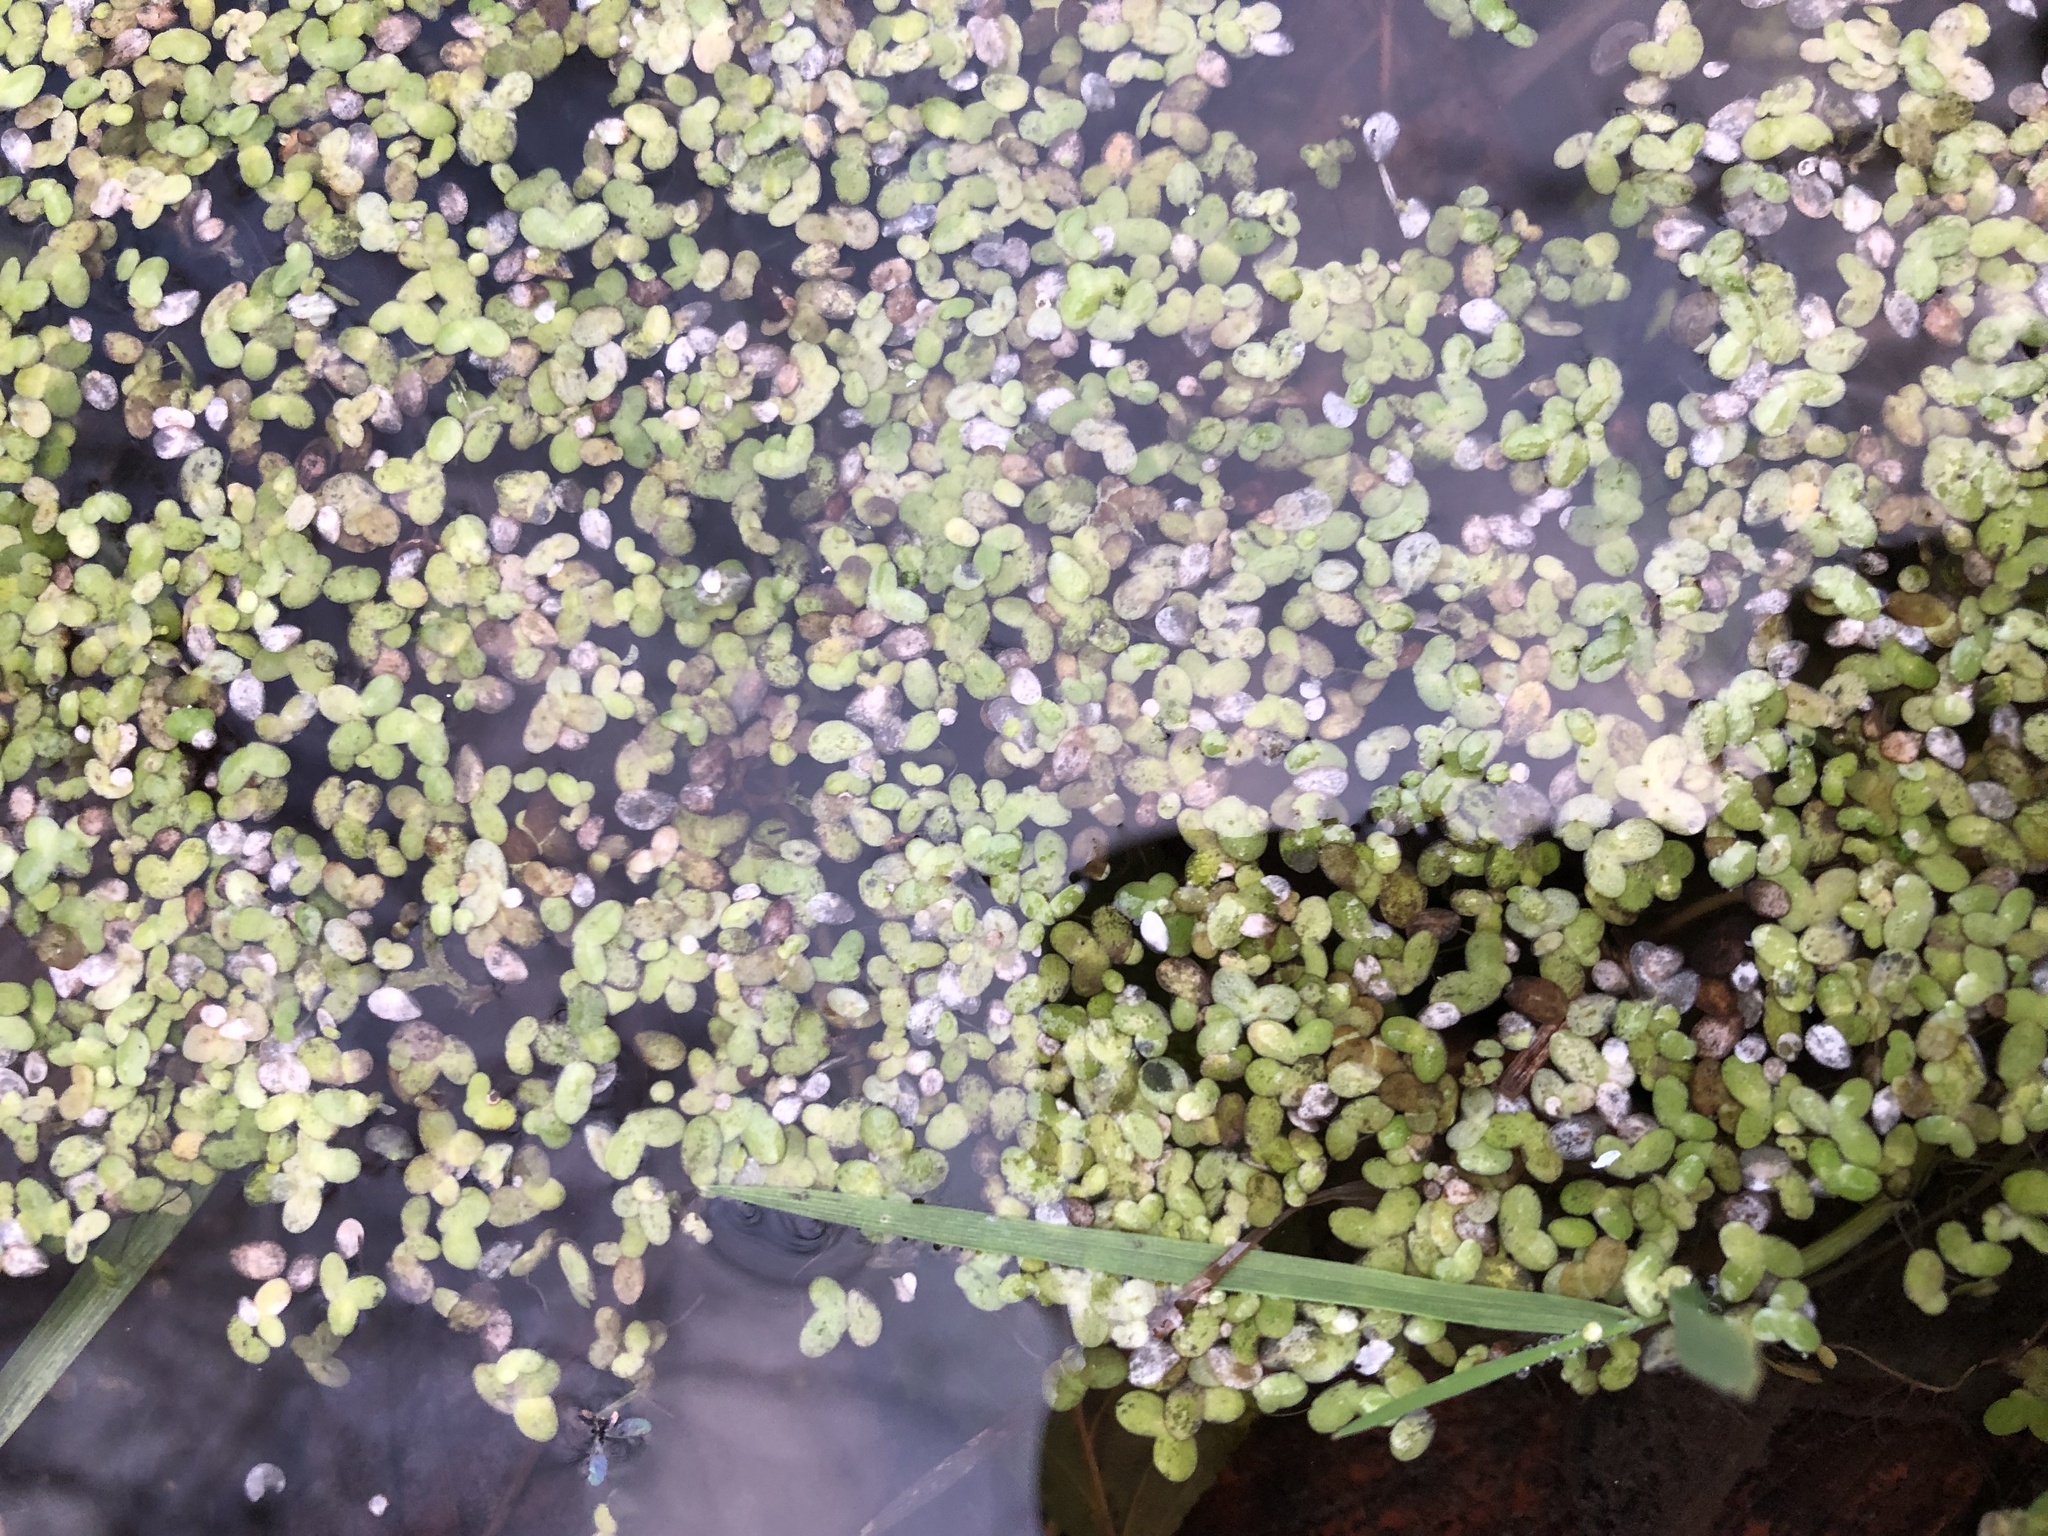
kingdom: Plantae
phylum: Tracheophyta
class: Liliopsida
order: Alismatales
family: Araceae
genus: Lemna
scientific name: Lemna minor
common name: Common duckweed
